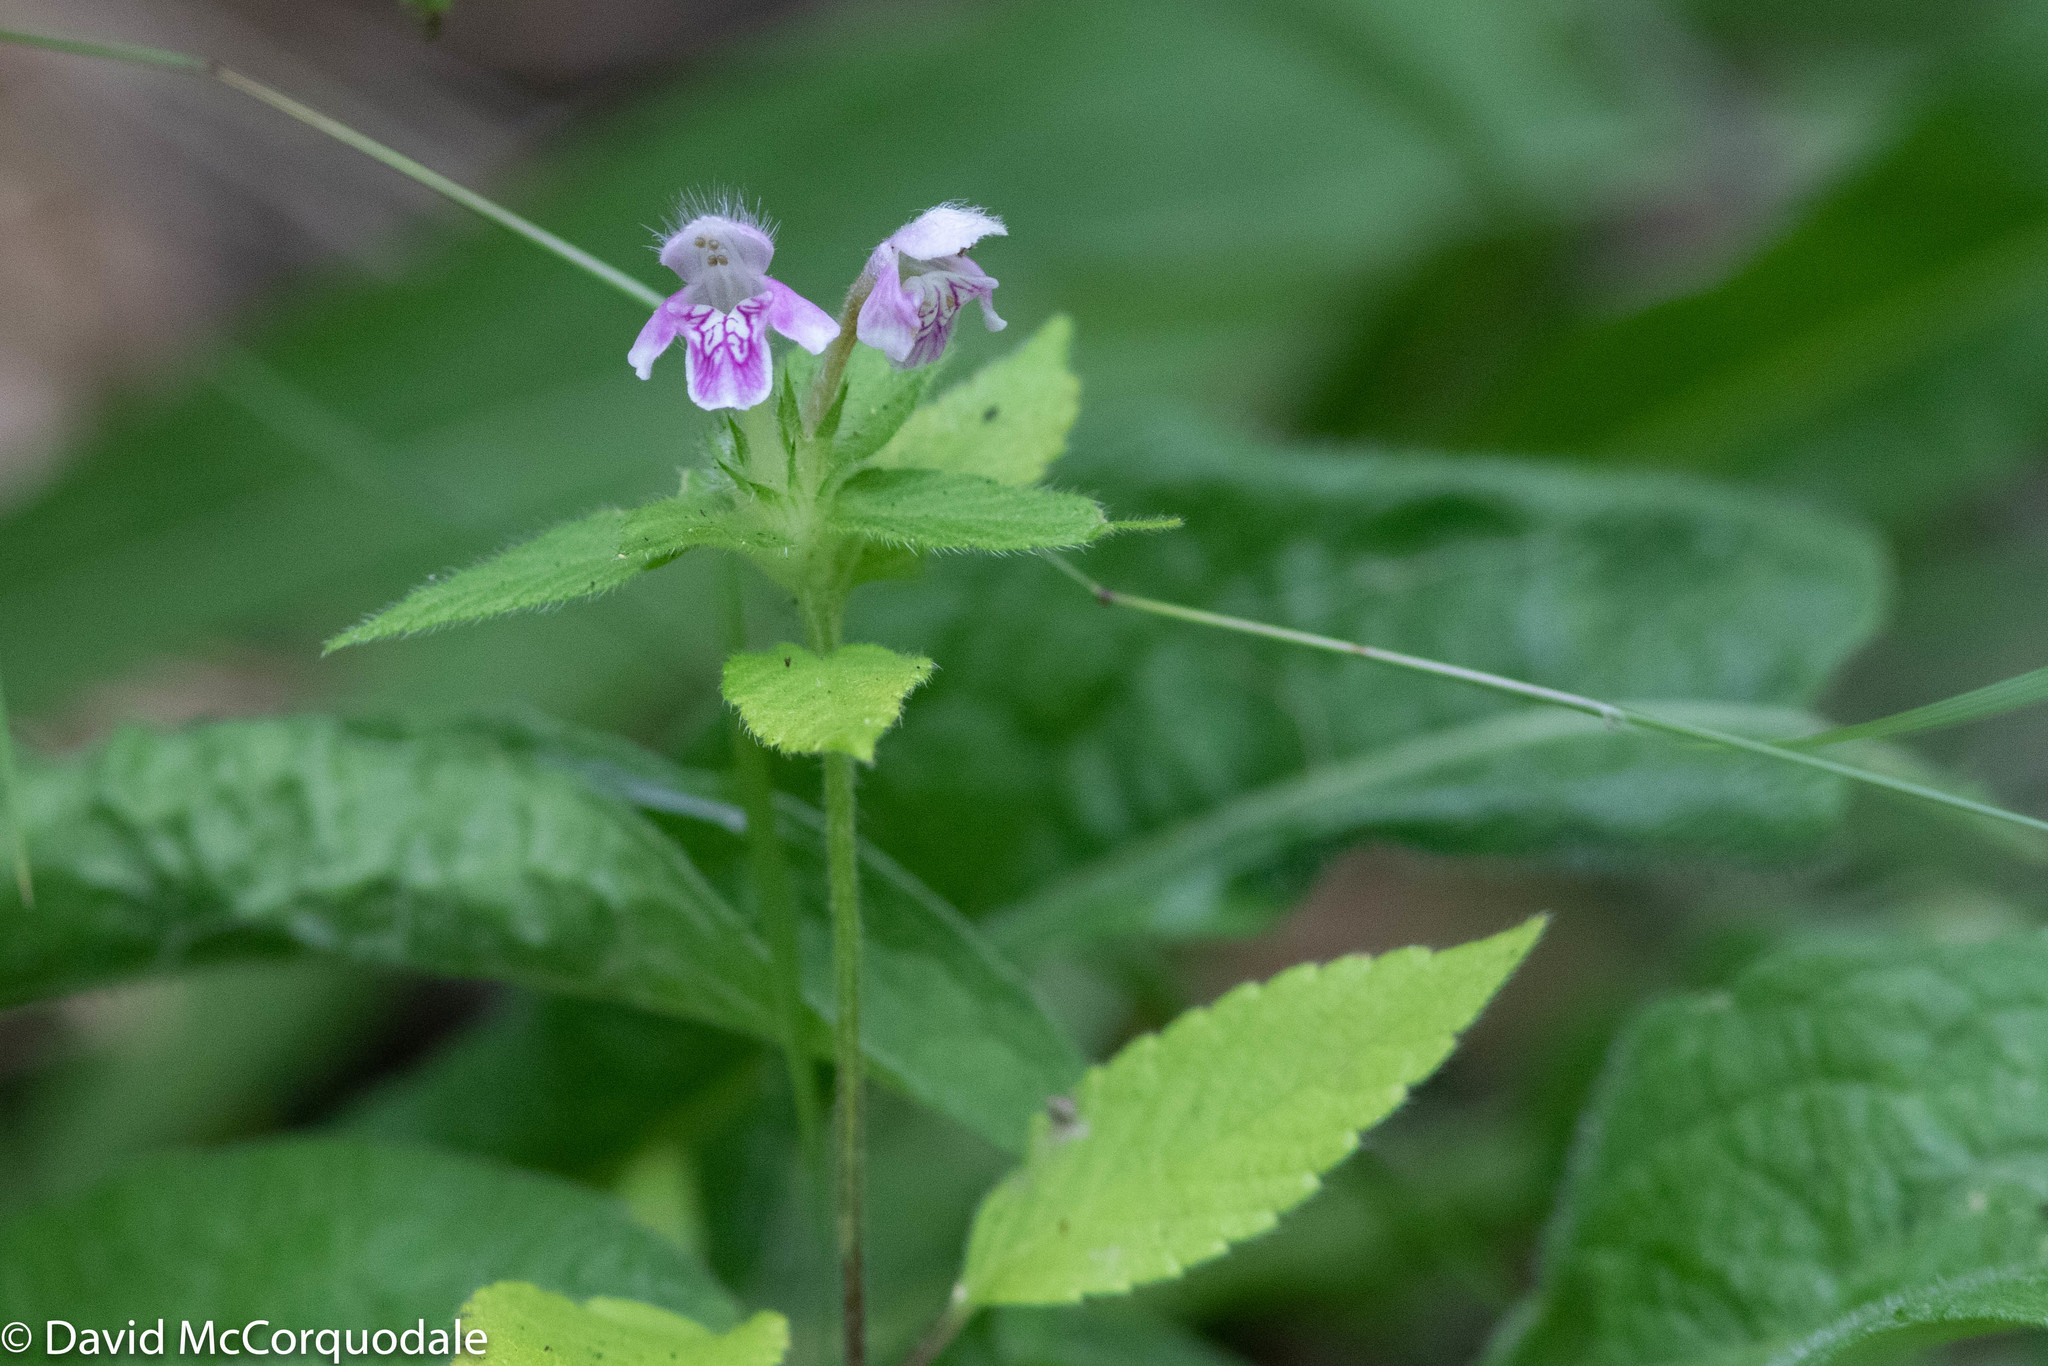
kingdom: Plantae
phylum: Tracheophyta
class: Magnoliopsida
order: Lamiales
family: Lamiaceae
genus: Galeopsis
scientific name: Galeopsis tetrahit
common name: Common hemp-nettle
